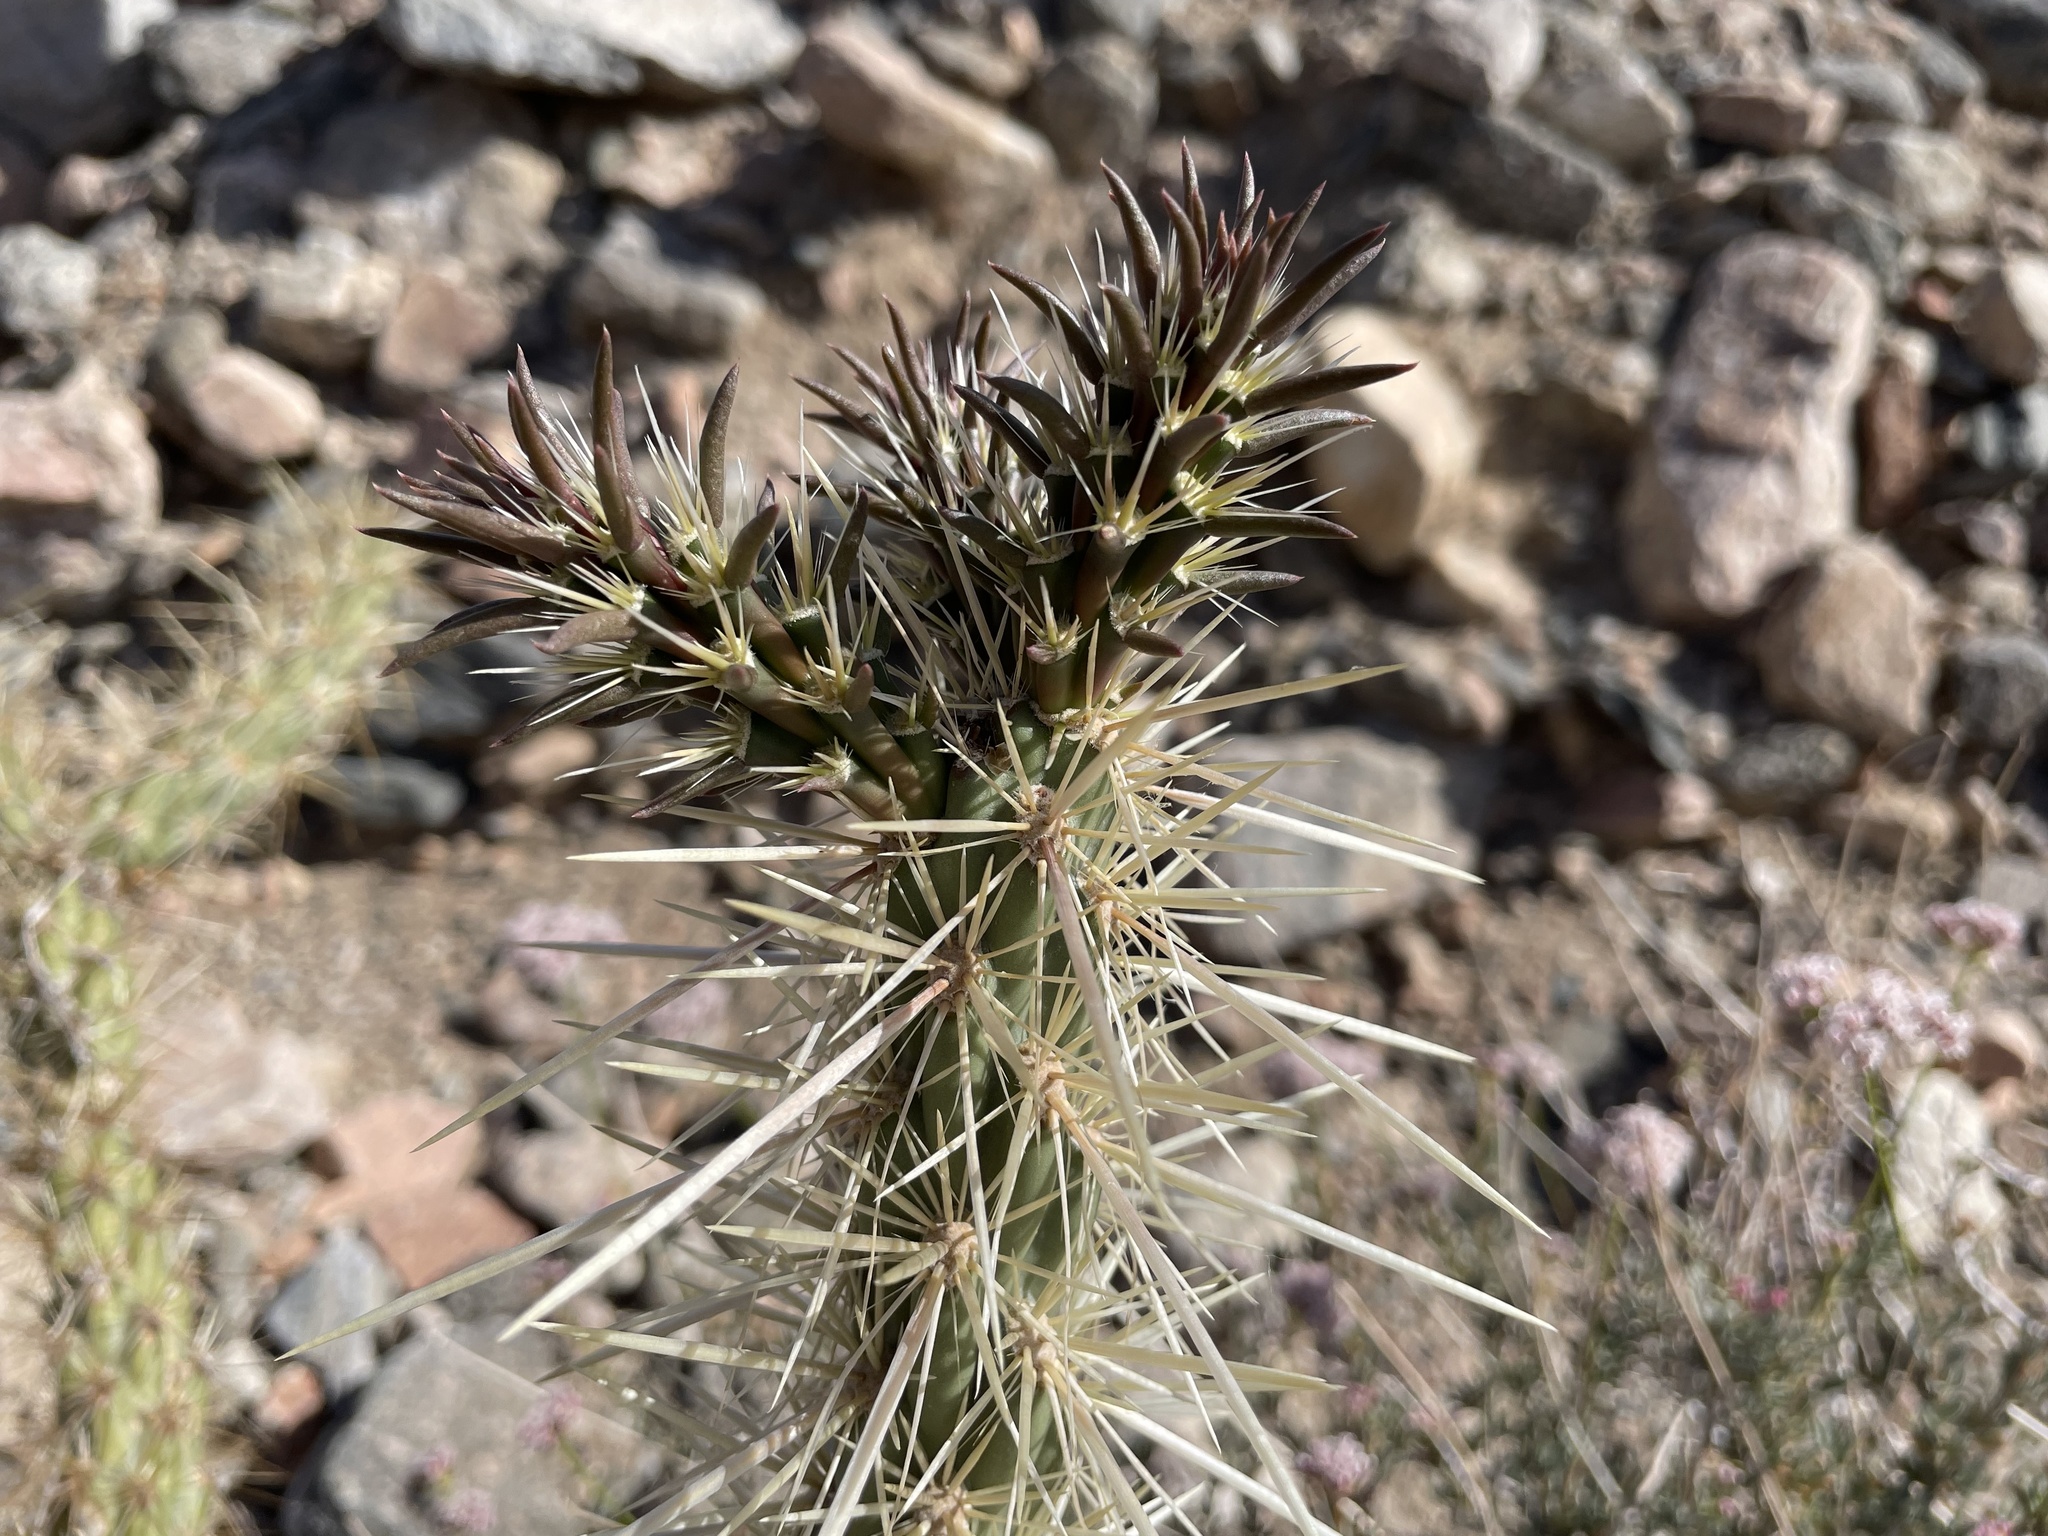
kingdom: Plantae
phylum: Tracheophyta
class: Magnoliopsida
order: Caryophyllales
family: Cactaceae
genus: Cylindropuntia
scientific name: Cylindropuntia acanthocarpa
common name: Buckhorn cholla
